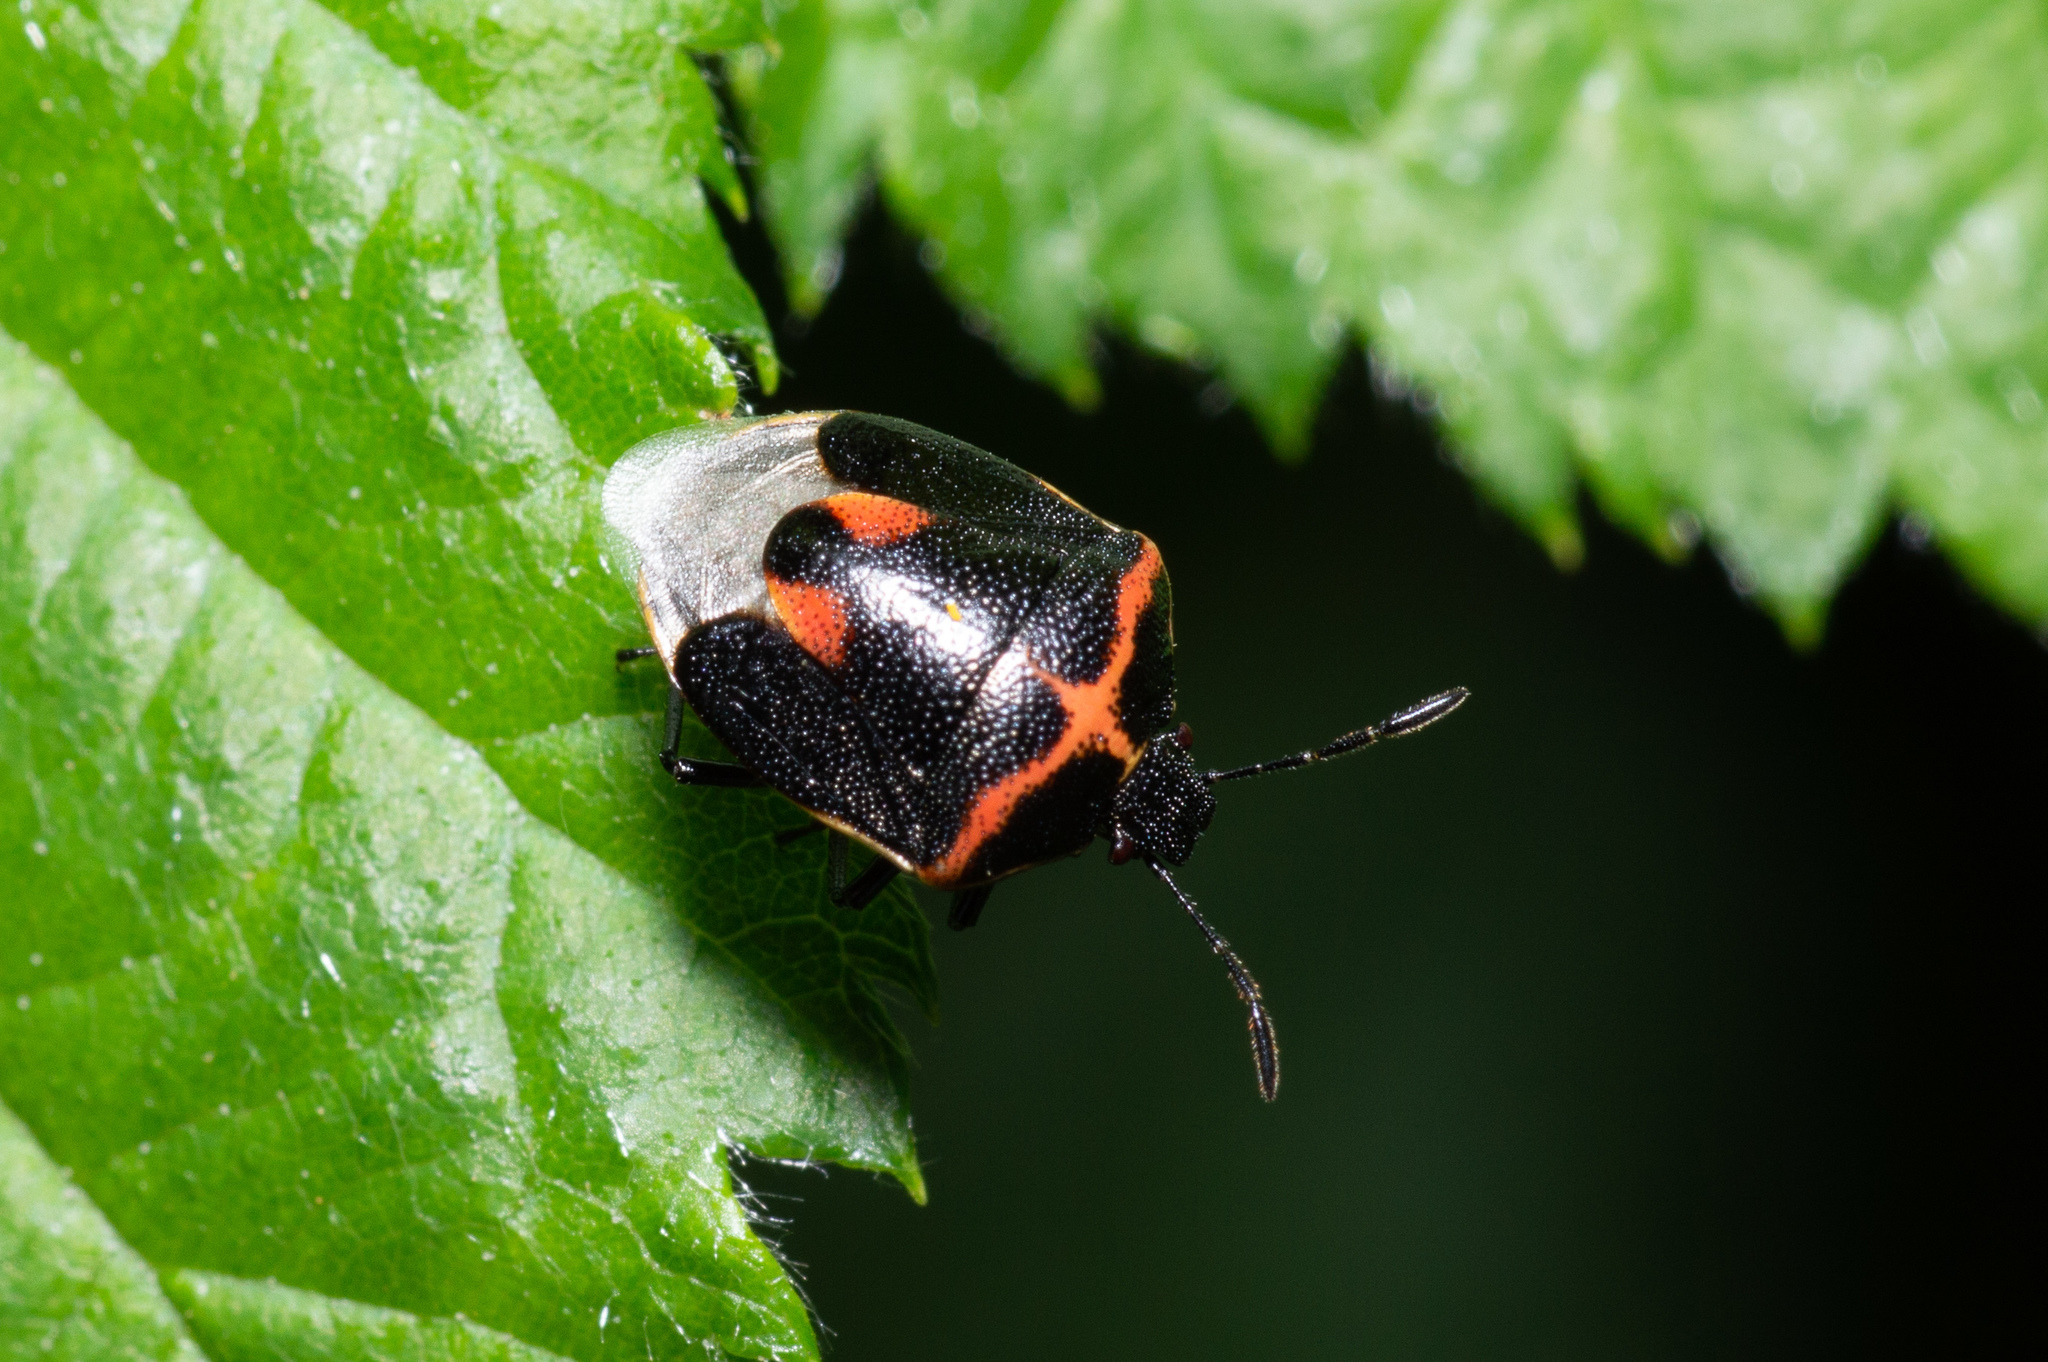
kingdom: Animalia
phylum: Arthropoda
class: Insecta
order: Hemiptera
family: Pentatomidae
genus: Cosmopepla
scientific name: Cosmopepla lintneriana
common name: Twice-stabbed stink bug
